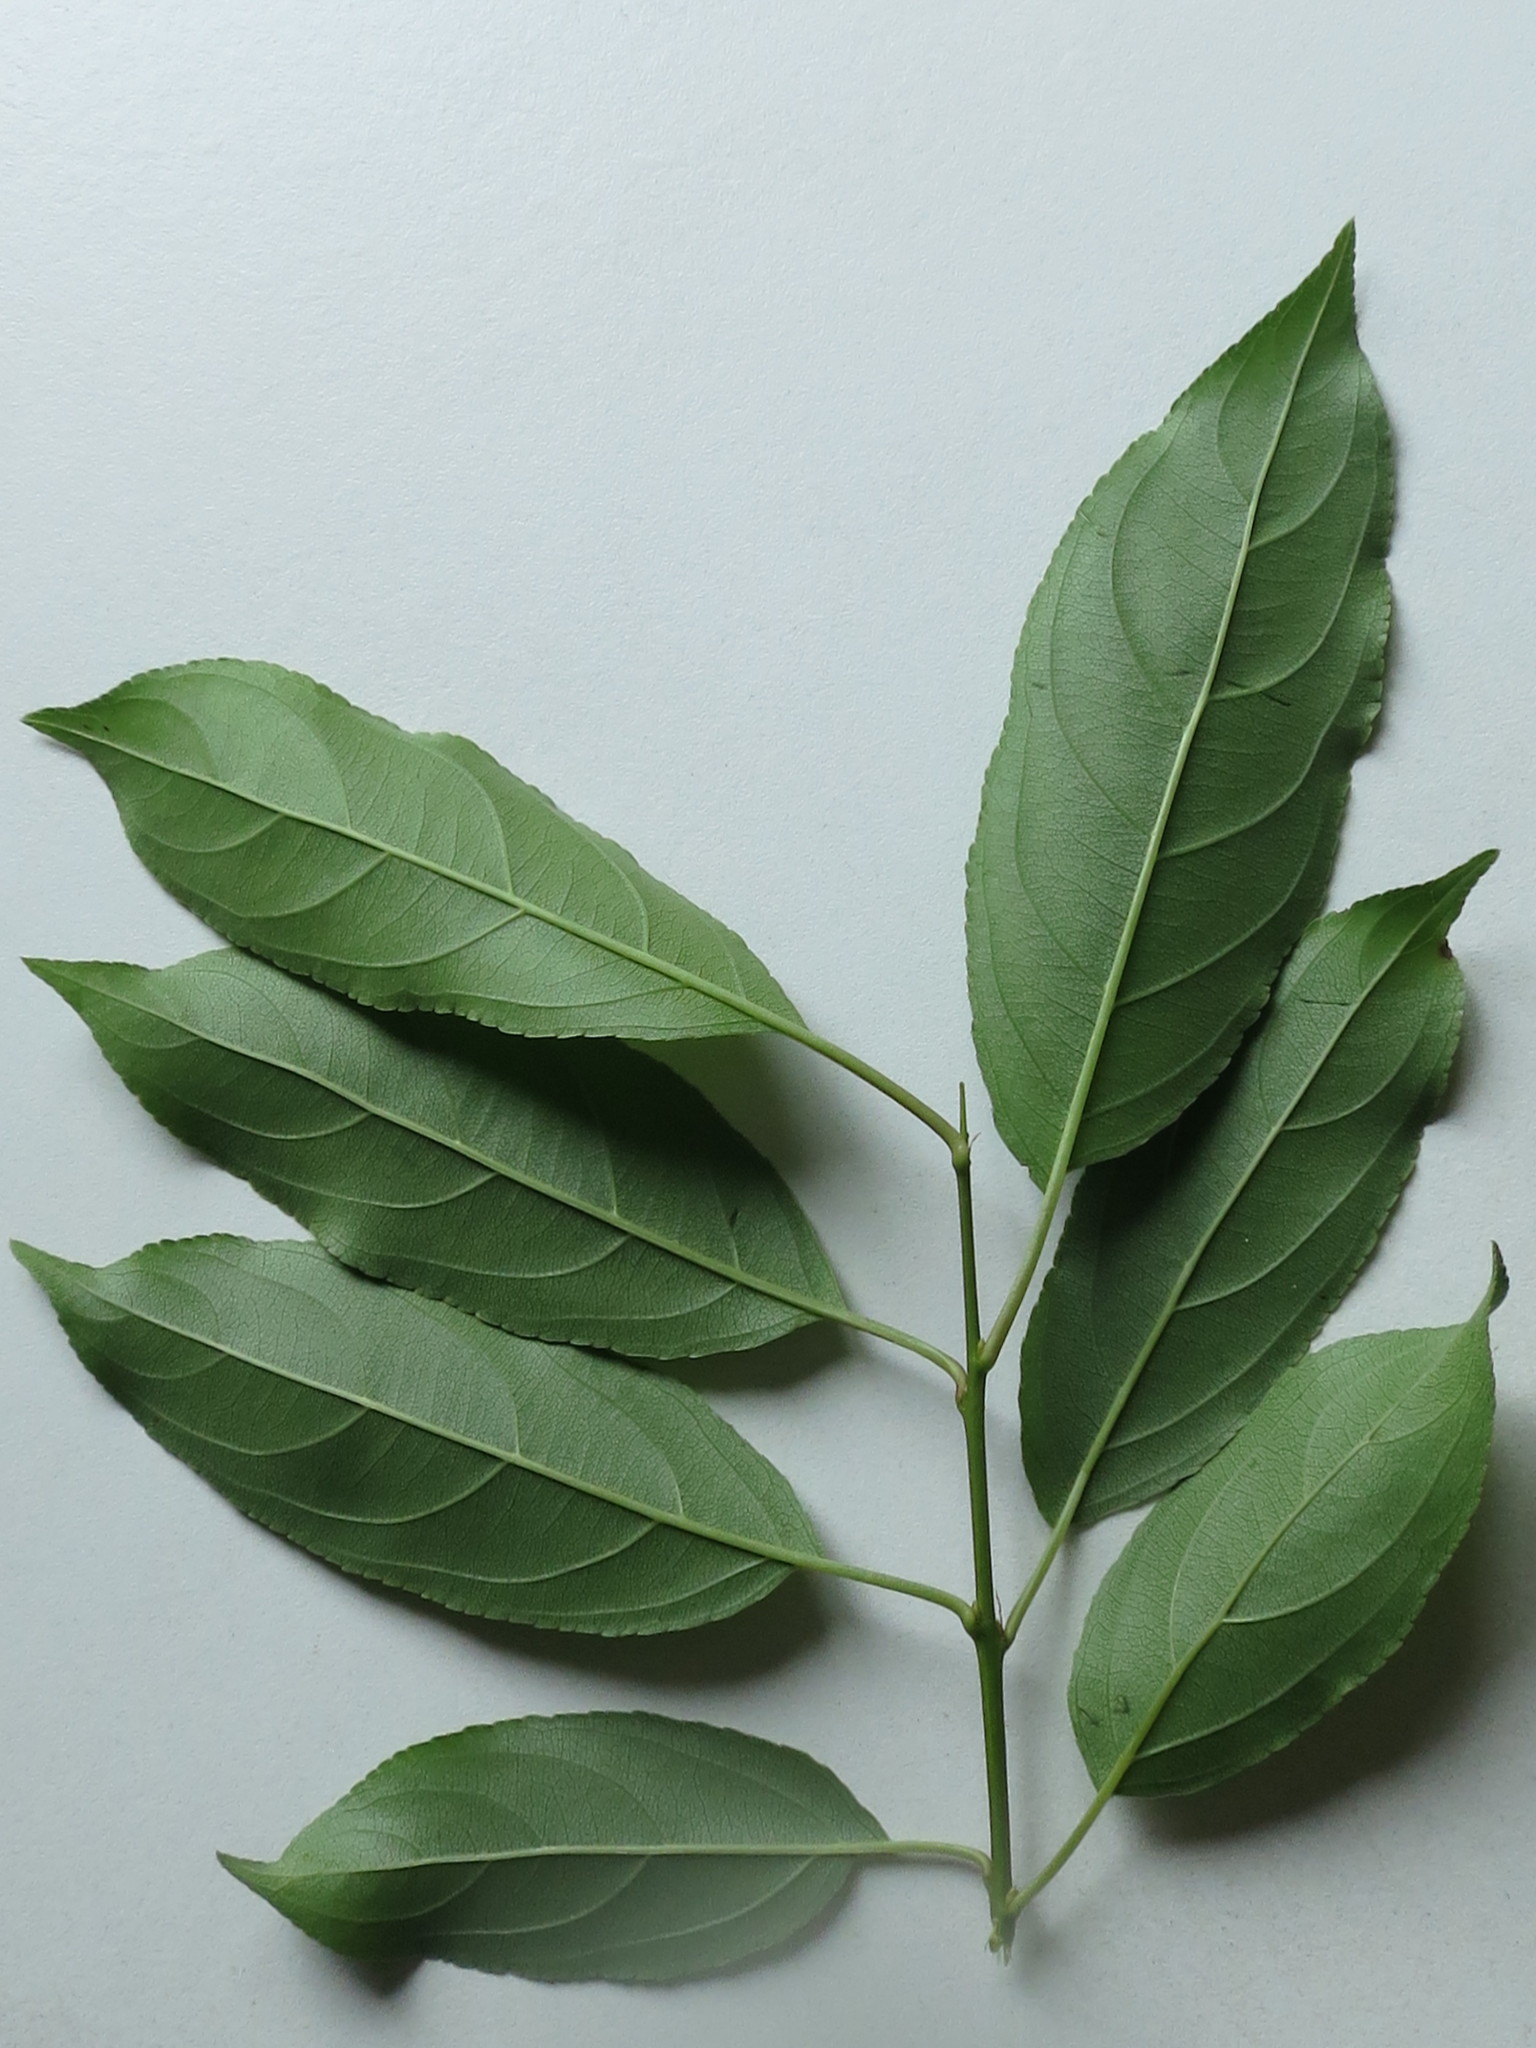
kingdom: Plantae
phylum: Tracheophyta
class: Magnoliopsida
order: Rosales
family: Rhamnaceae
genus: Rhamnus
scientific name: Rhamnus ussuriensis
